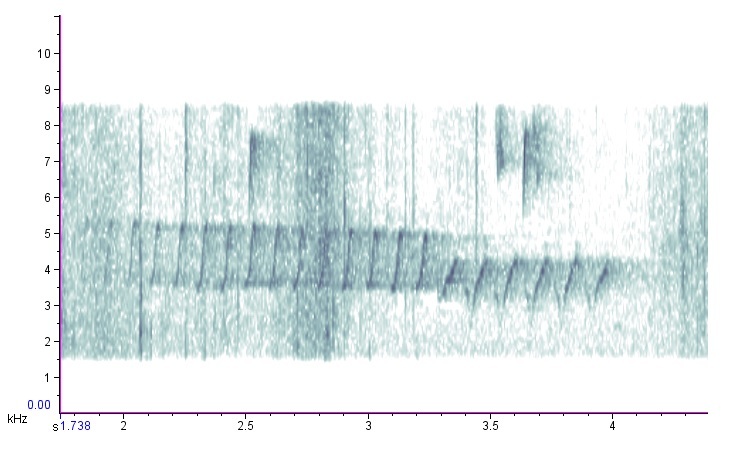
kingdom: Animalia
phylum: Chordata
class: Aves
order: Passeriformes
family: Parulidae
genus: Setophaga
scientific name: Setophaga pinus
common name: Pine warbler
